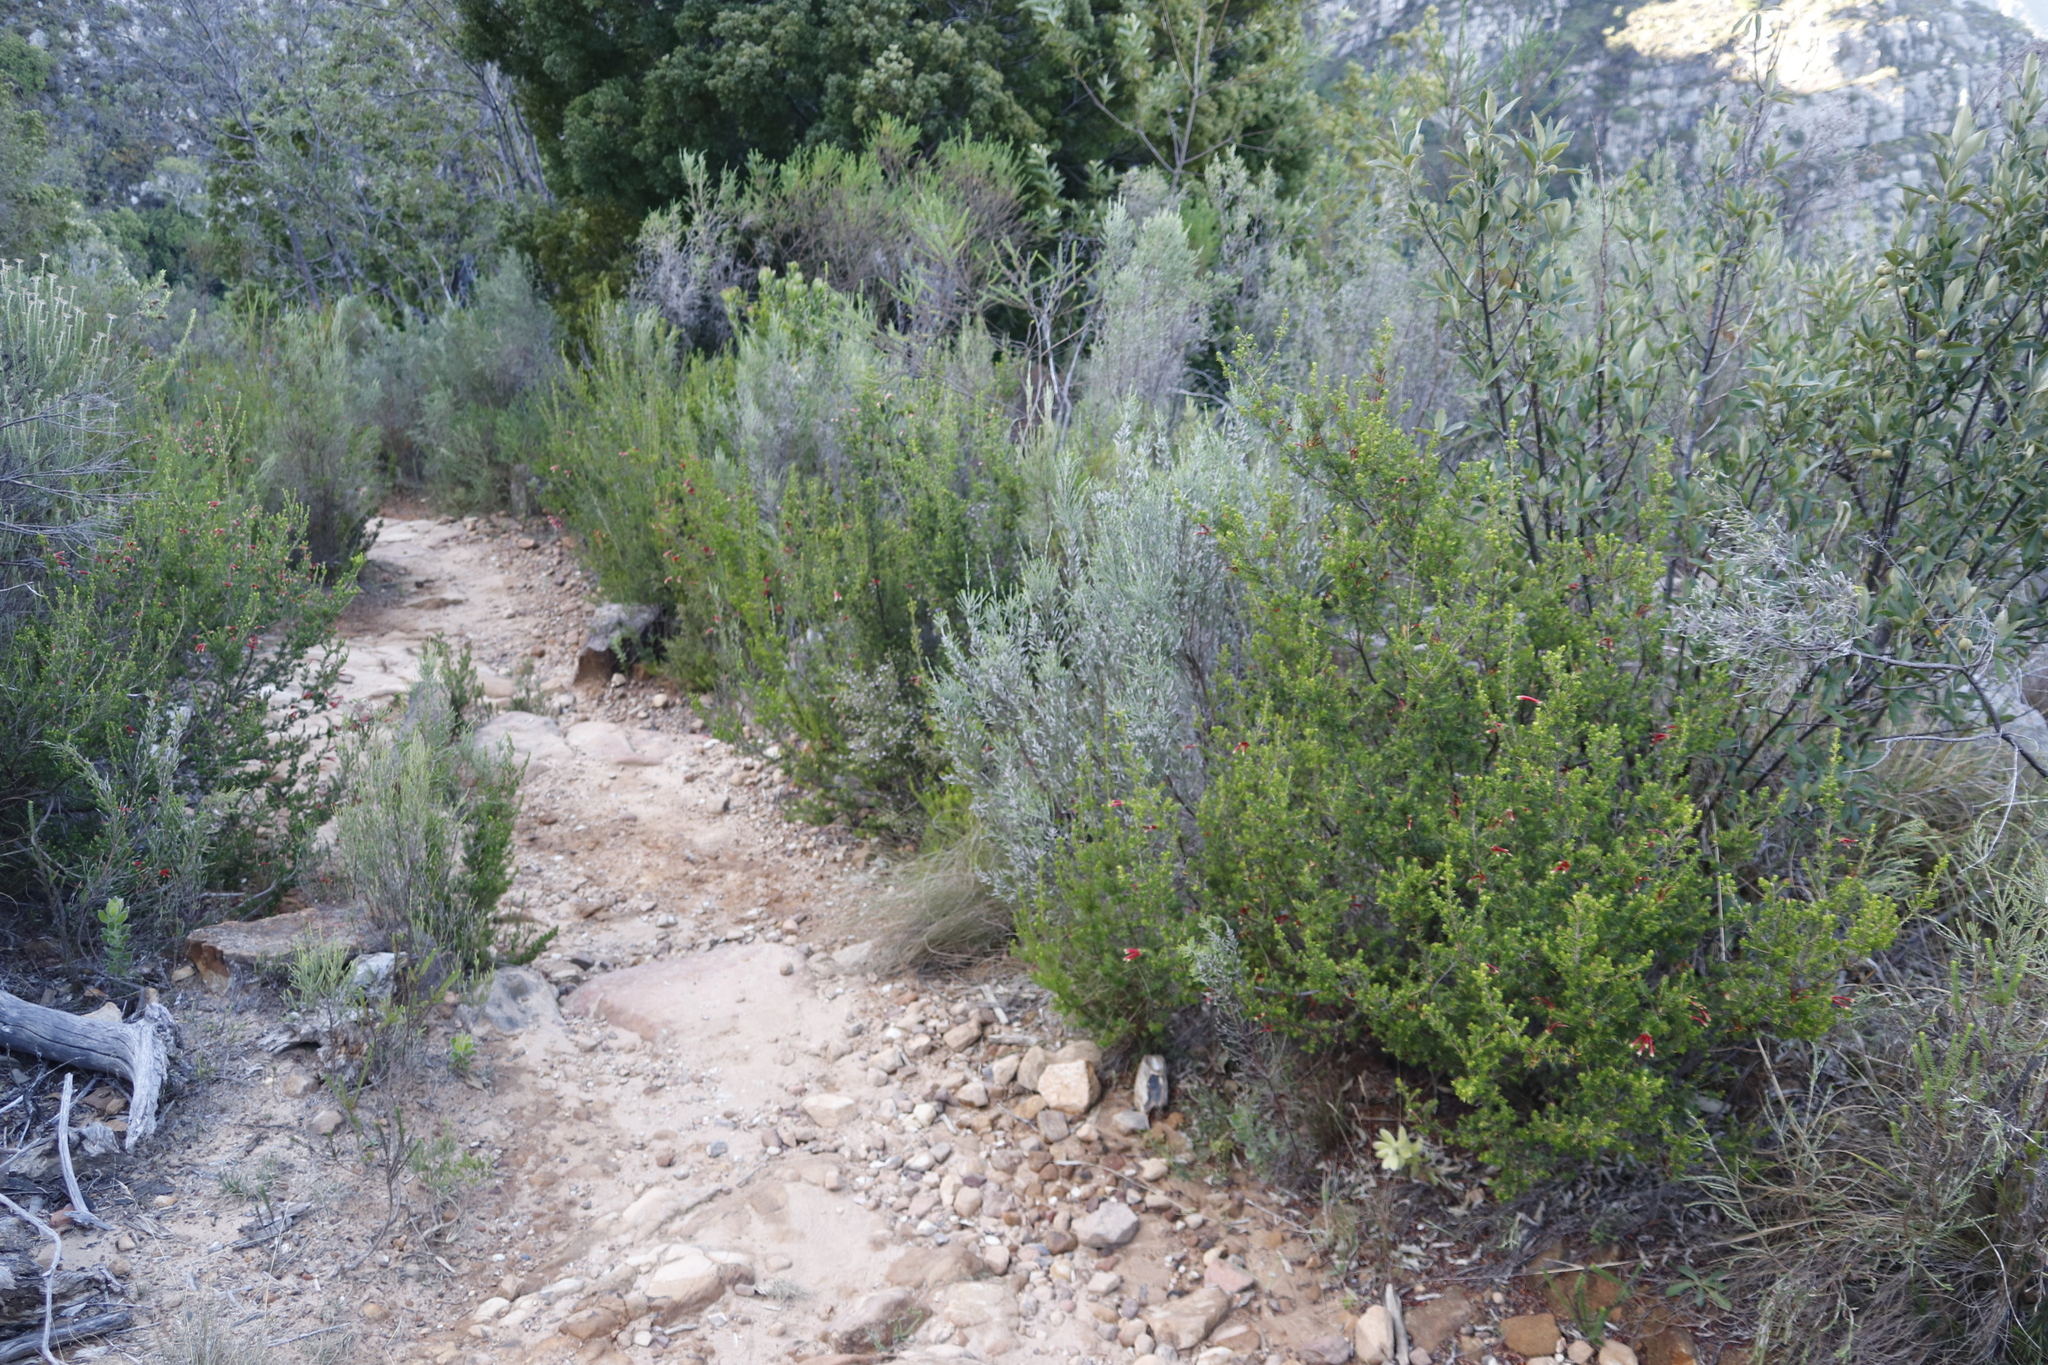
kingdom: Plantae
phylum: Tracheophyta
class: Magnoliopsida
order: Malvales
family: Thymelaeaceae
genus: Passerina
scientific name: Passerina corymbosa
